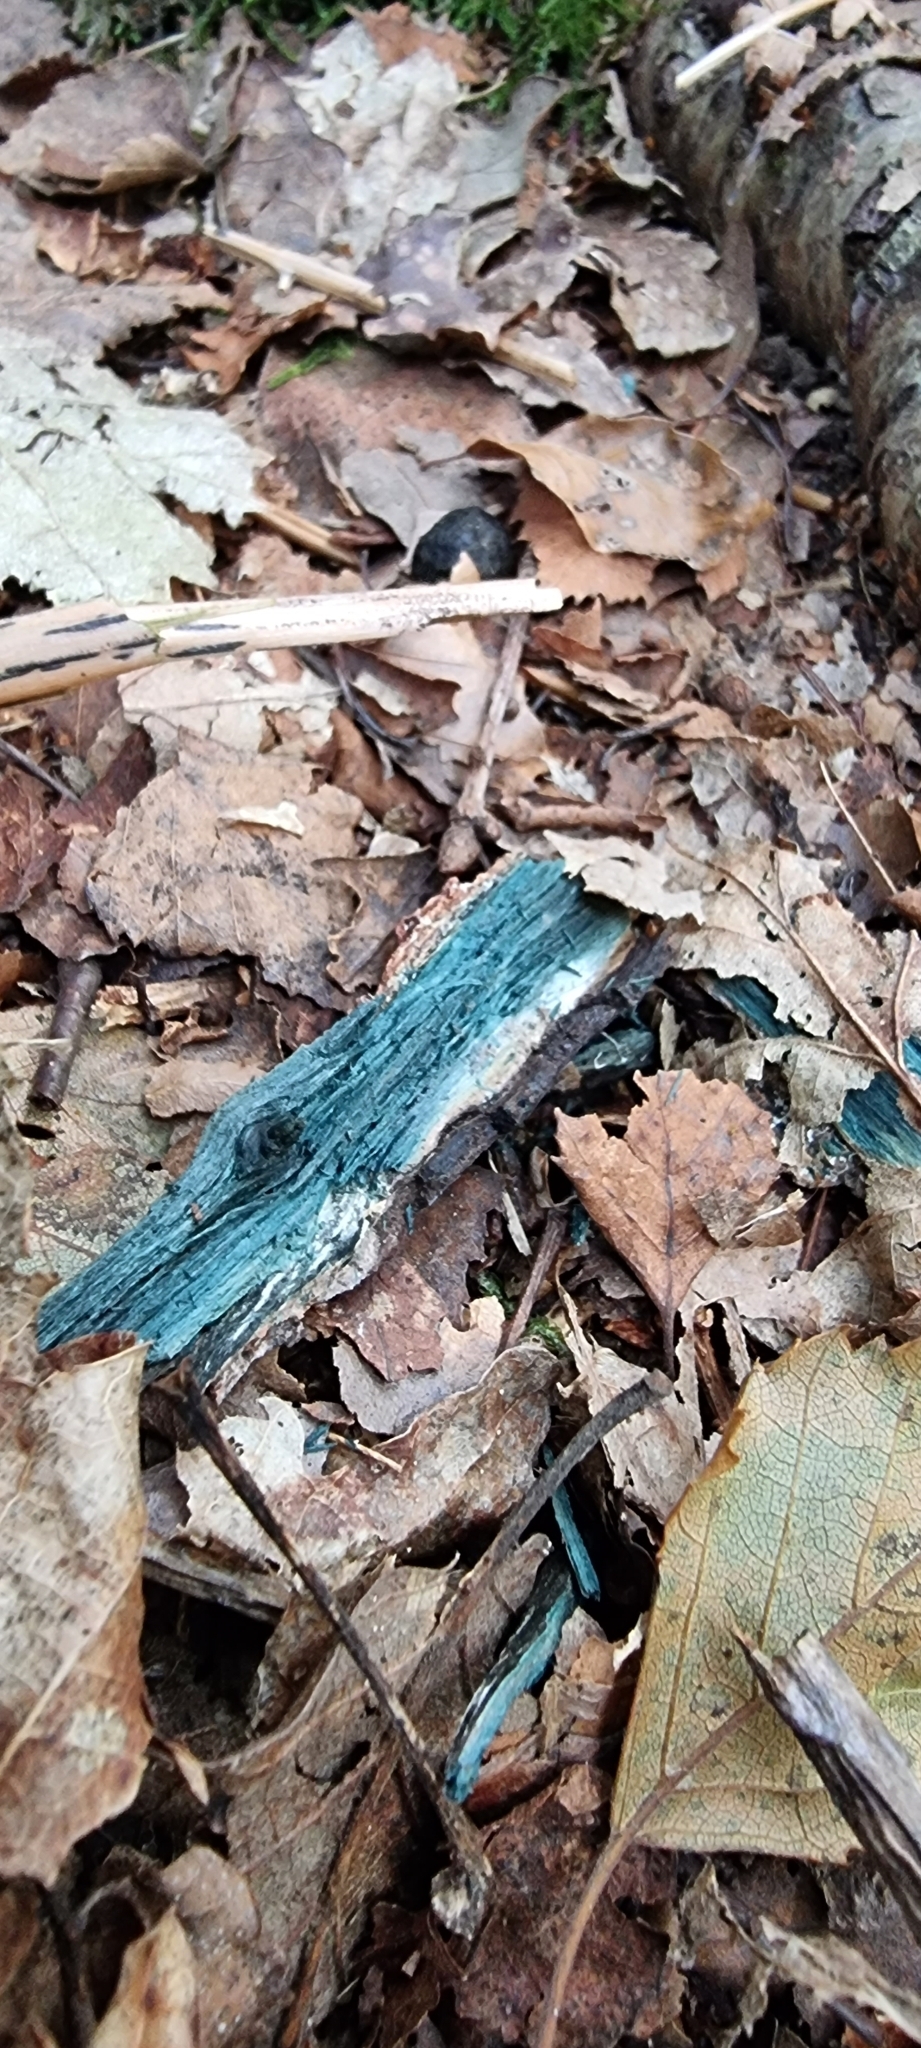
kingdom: Fungi
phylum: Ascomycota
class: Leotiomycetes
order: Helotiales
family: Chlorociboriaceae
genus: Chlorociboria
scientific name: Chlorociboria
